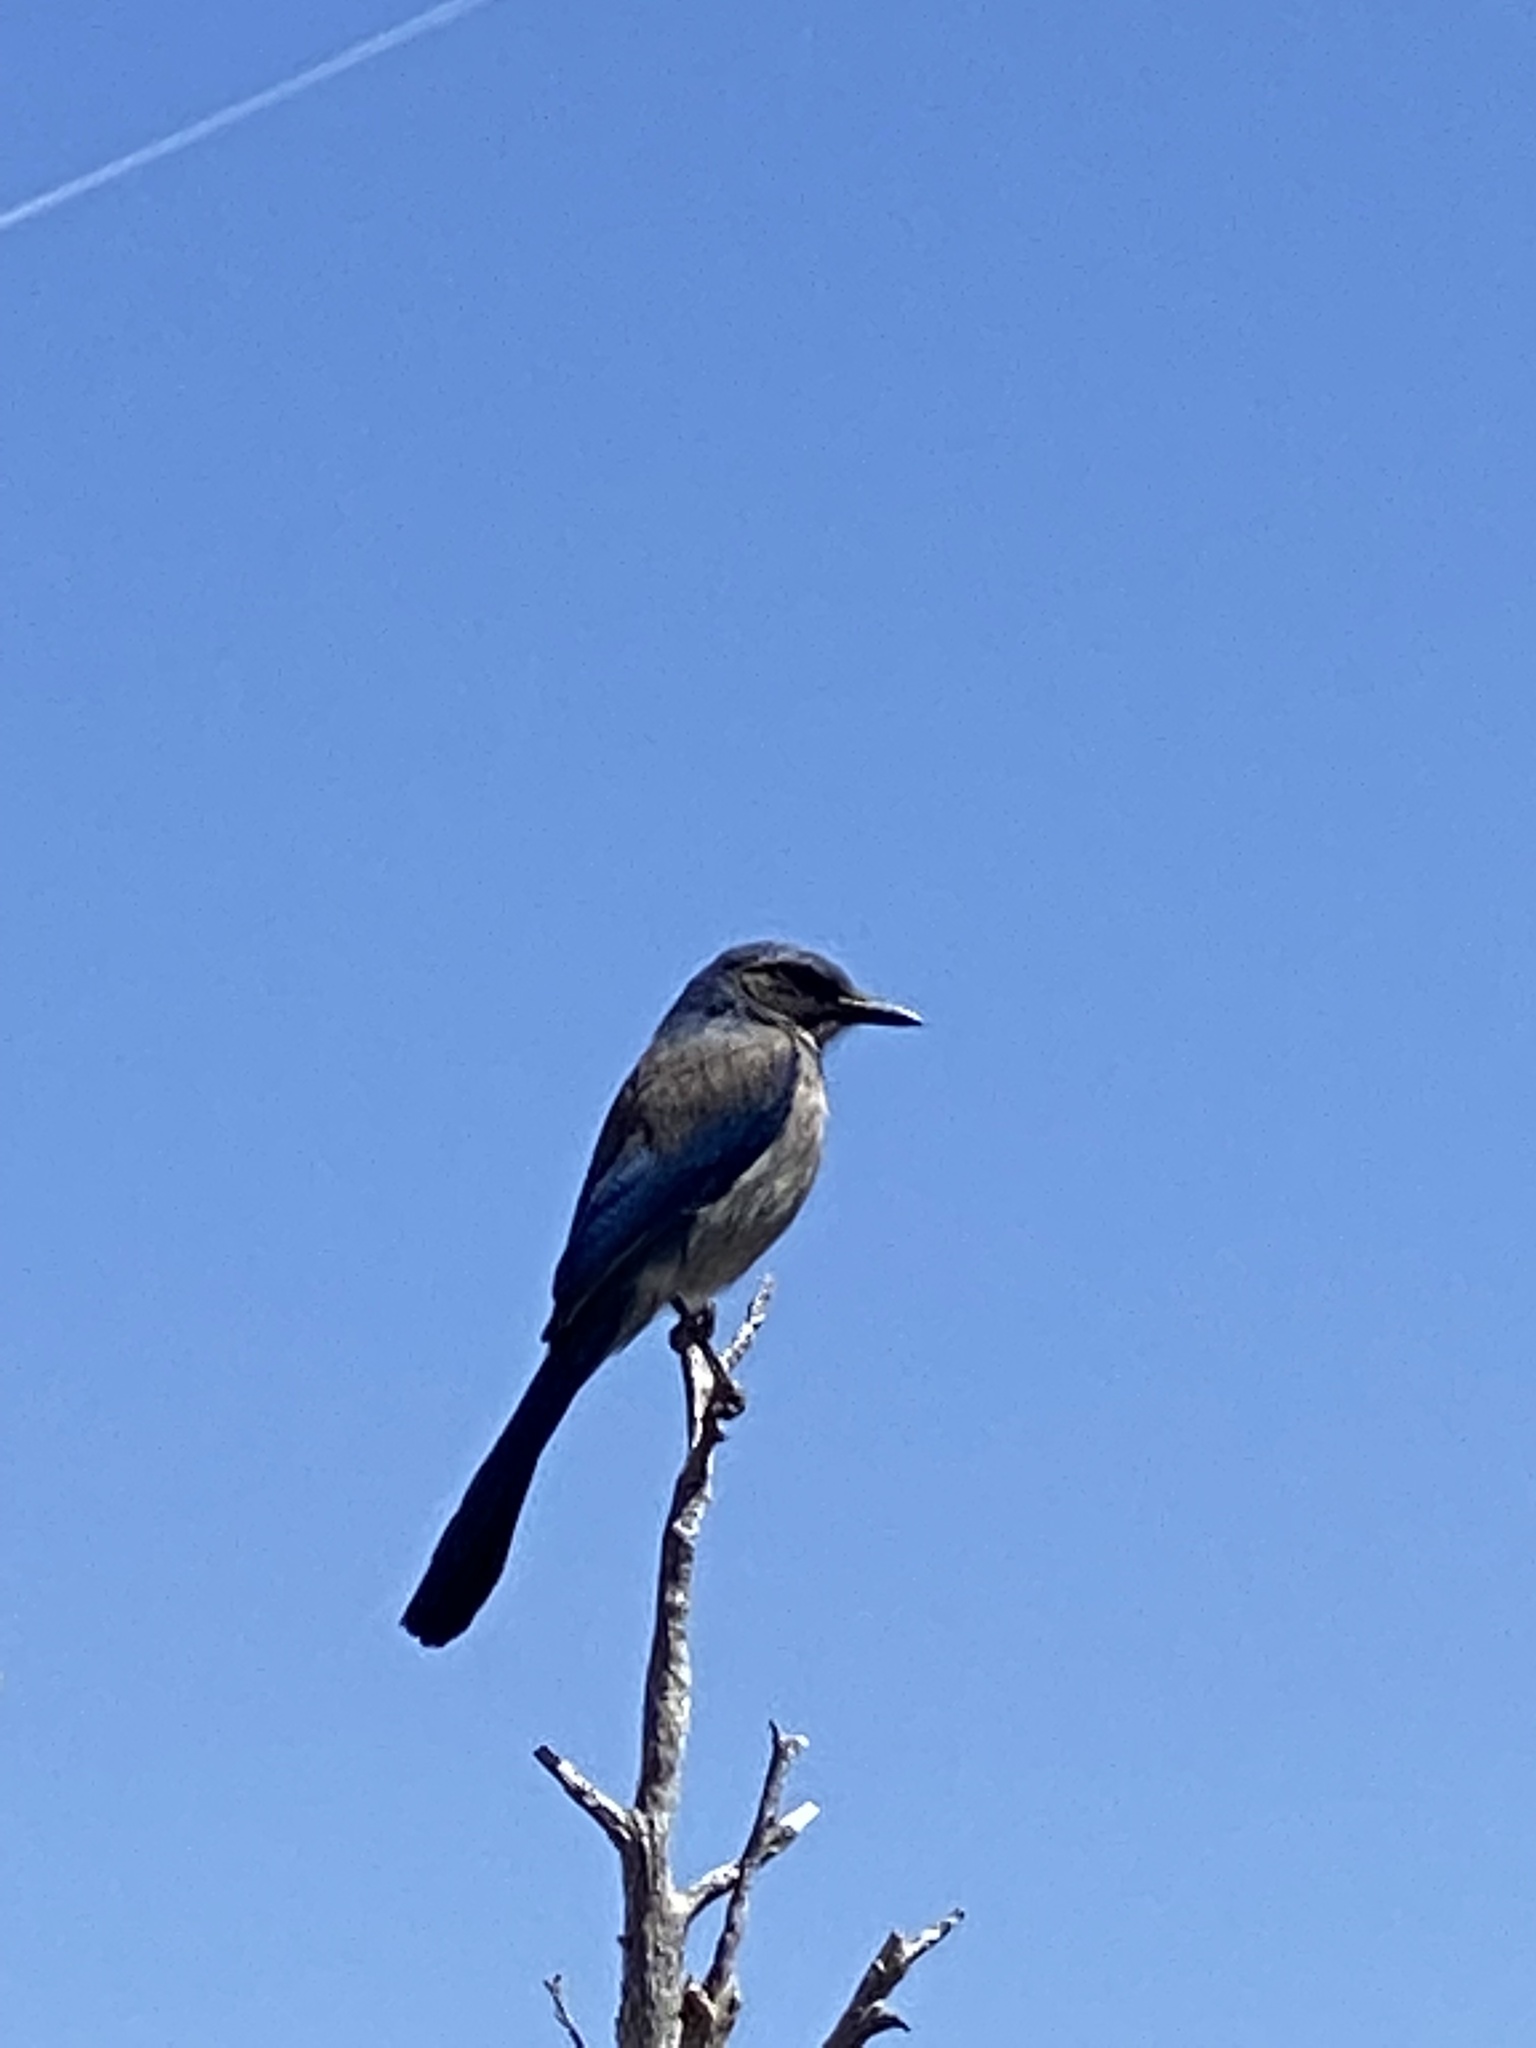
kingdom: Animalia
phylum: Chordata
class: Aves
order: Passeriformes
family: Corvidae
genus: Aphelocoma
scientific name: Aphelocoma woodhouseii
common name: Woodhouse's scrub-jay
